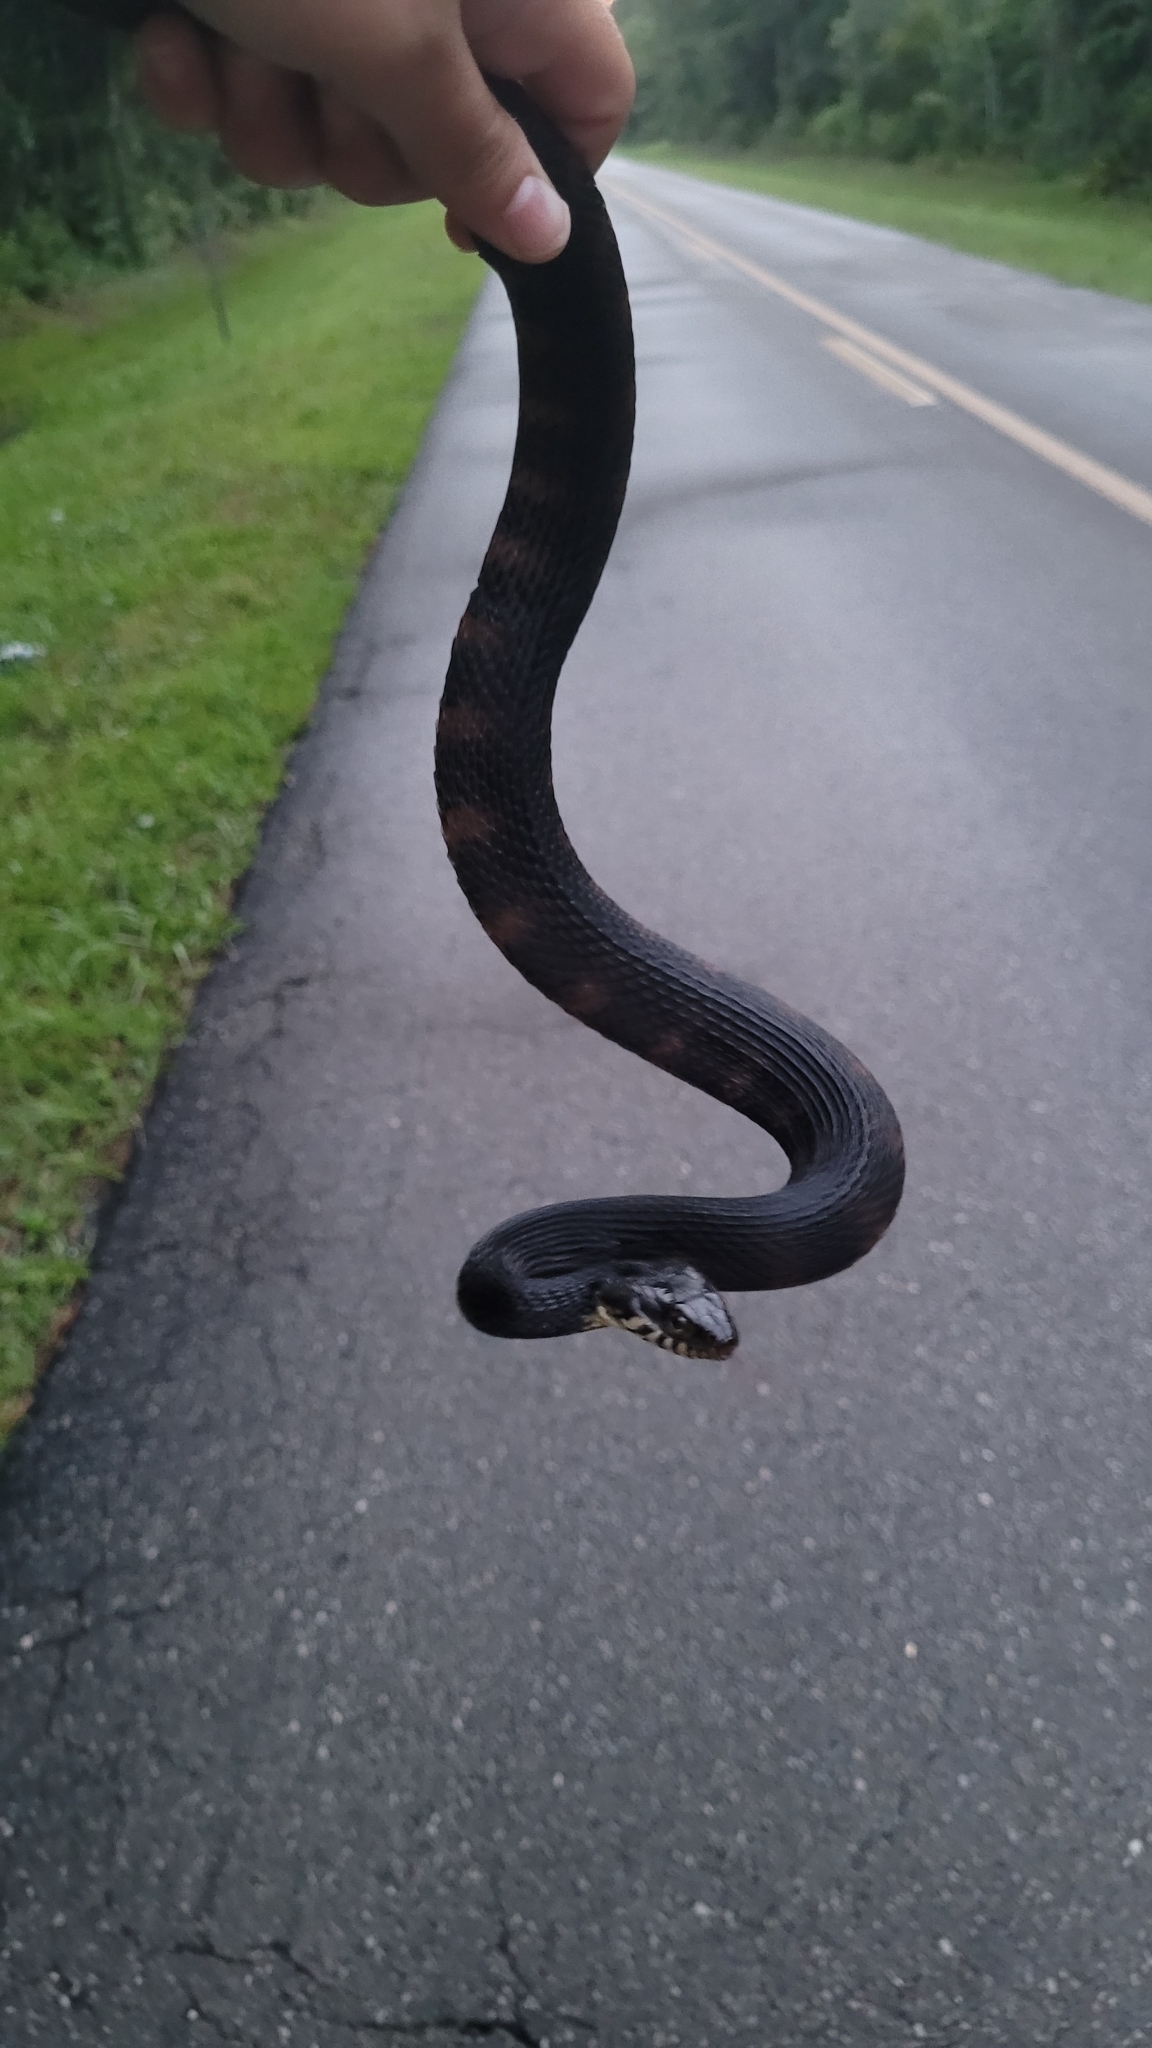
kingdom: Animalia
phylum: Chordata
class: Squamata
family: Colubridae
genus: Nerodia
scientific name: Nerodia fasciata
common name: Southern water snake
